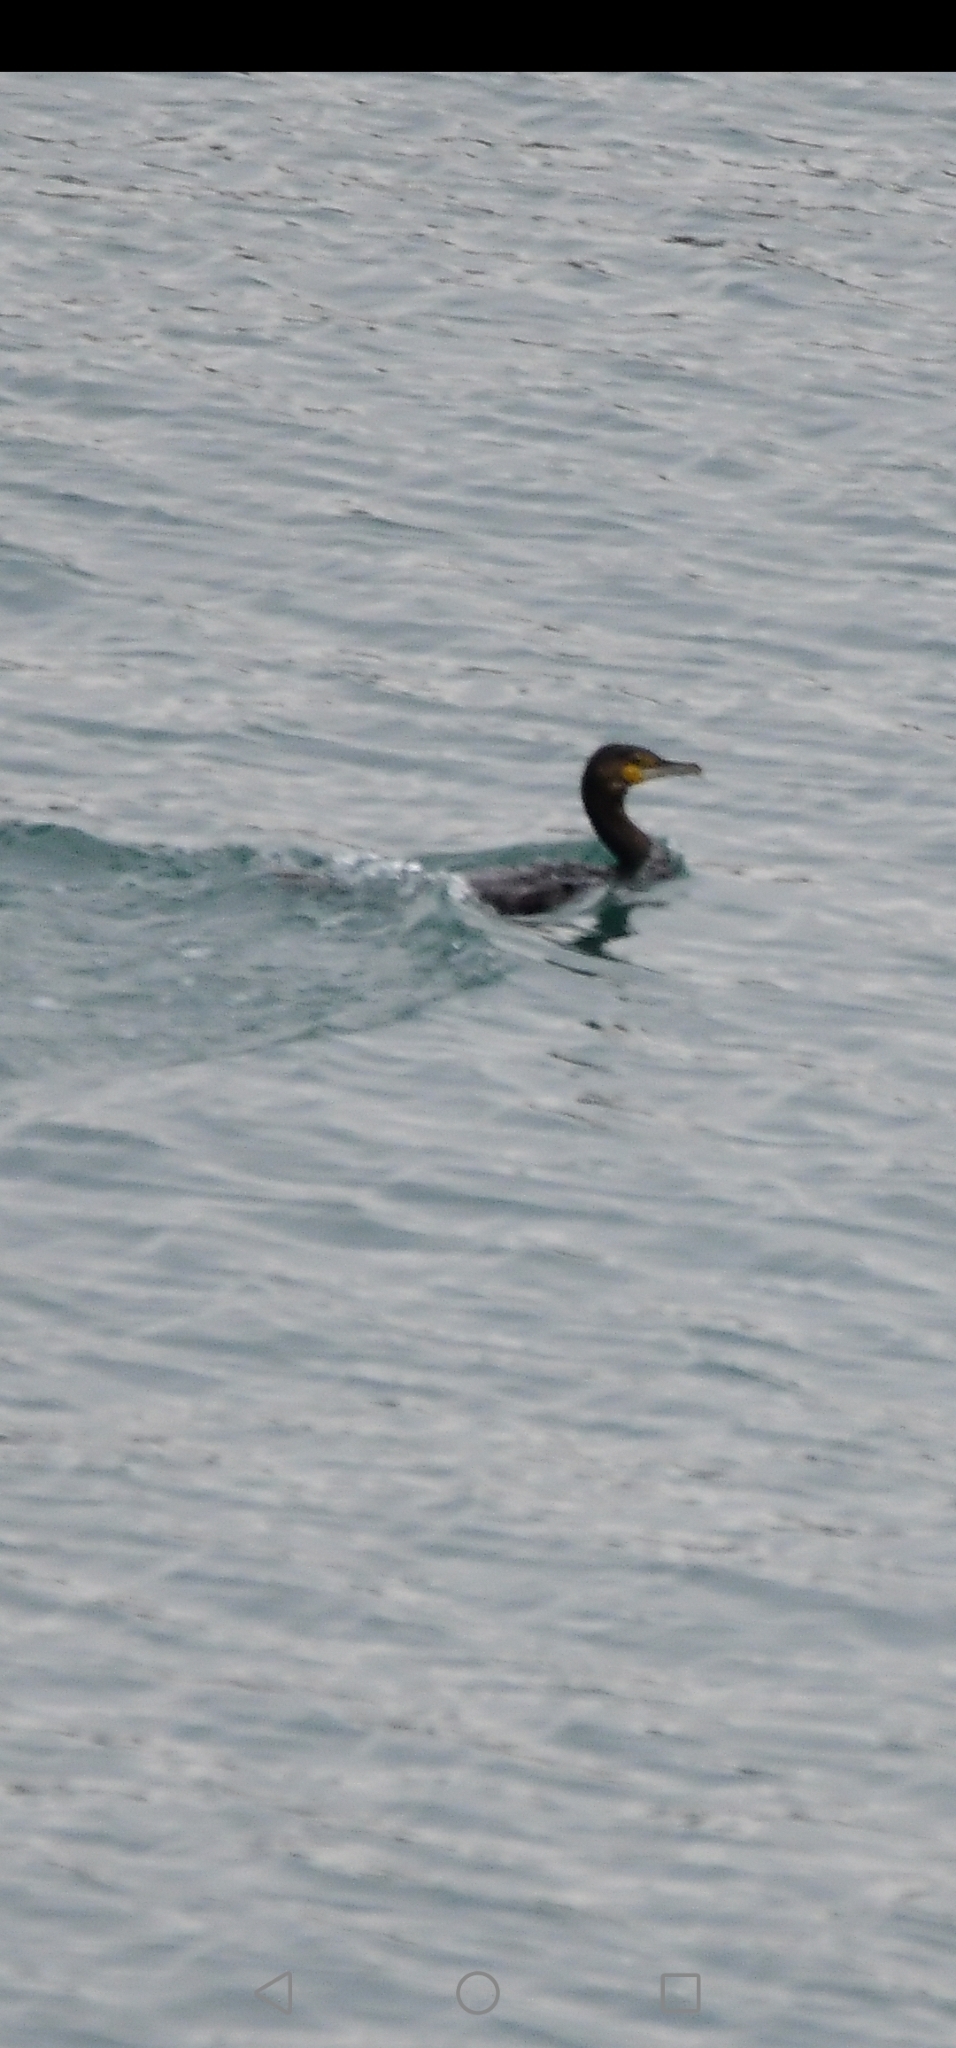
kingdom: Animalia
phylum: Chordata
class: Aves
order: Suliformes
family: Phalacrocoracidae
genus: Phalacrocorax
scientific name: Phalacrocorax carbo
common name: Great cormorant
